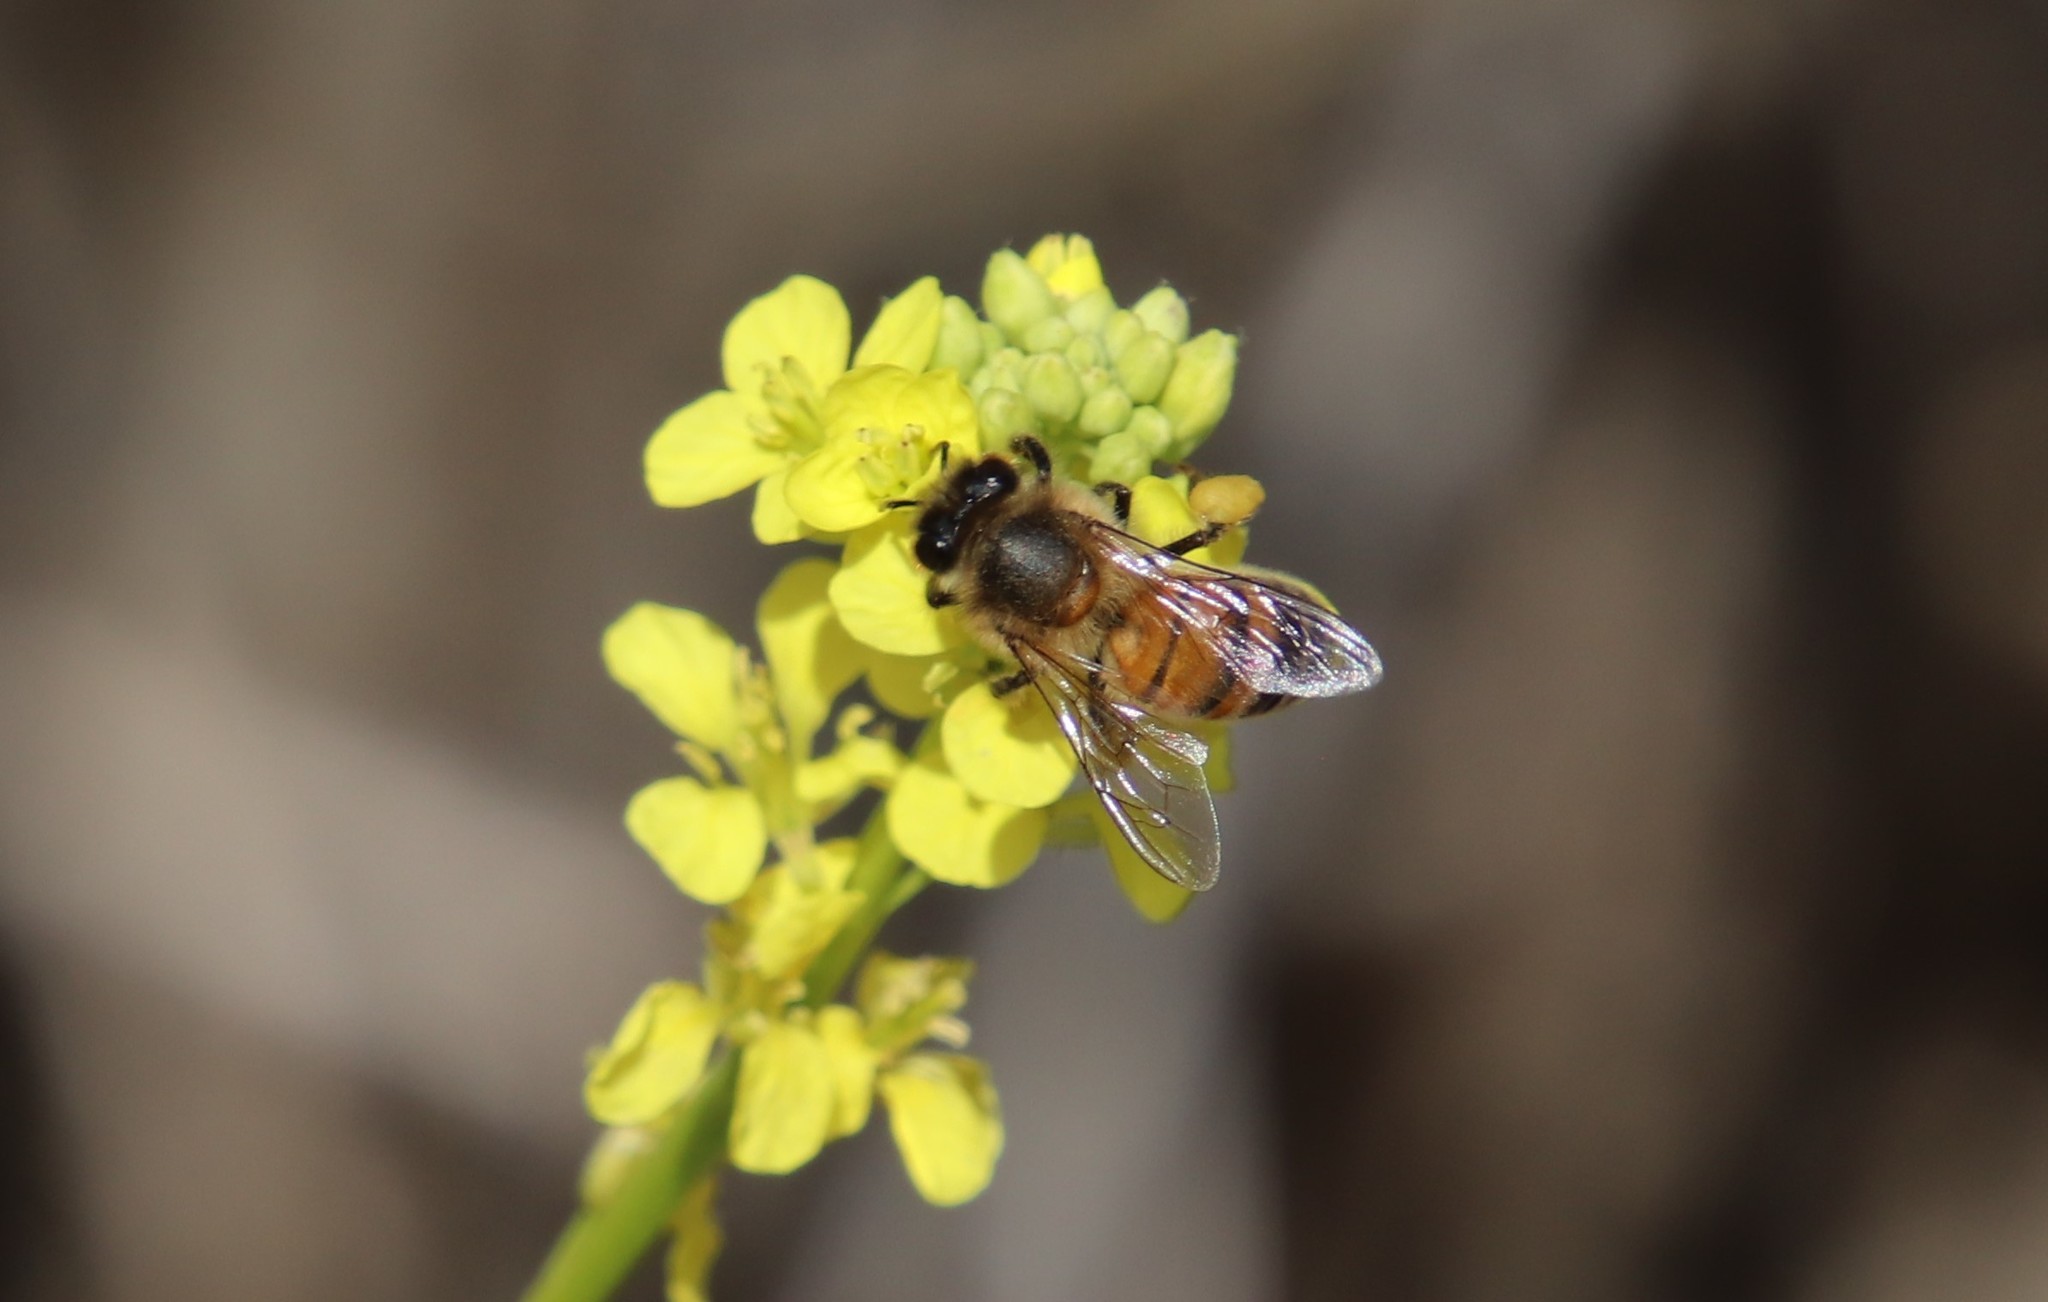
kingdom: Animalia
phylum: Arthropoda
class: Insecta
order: Hymenoptera
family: Apidae
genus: Apis
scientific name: Apis mellifera
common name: Honey bee
